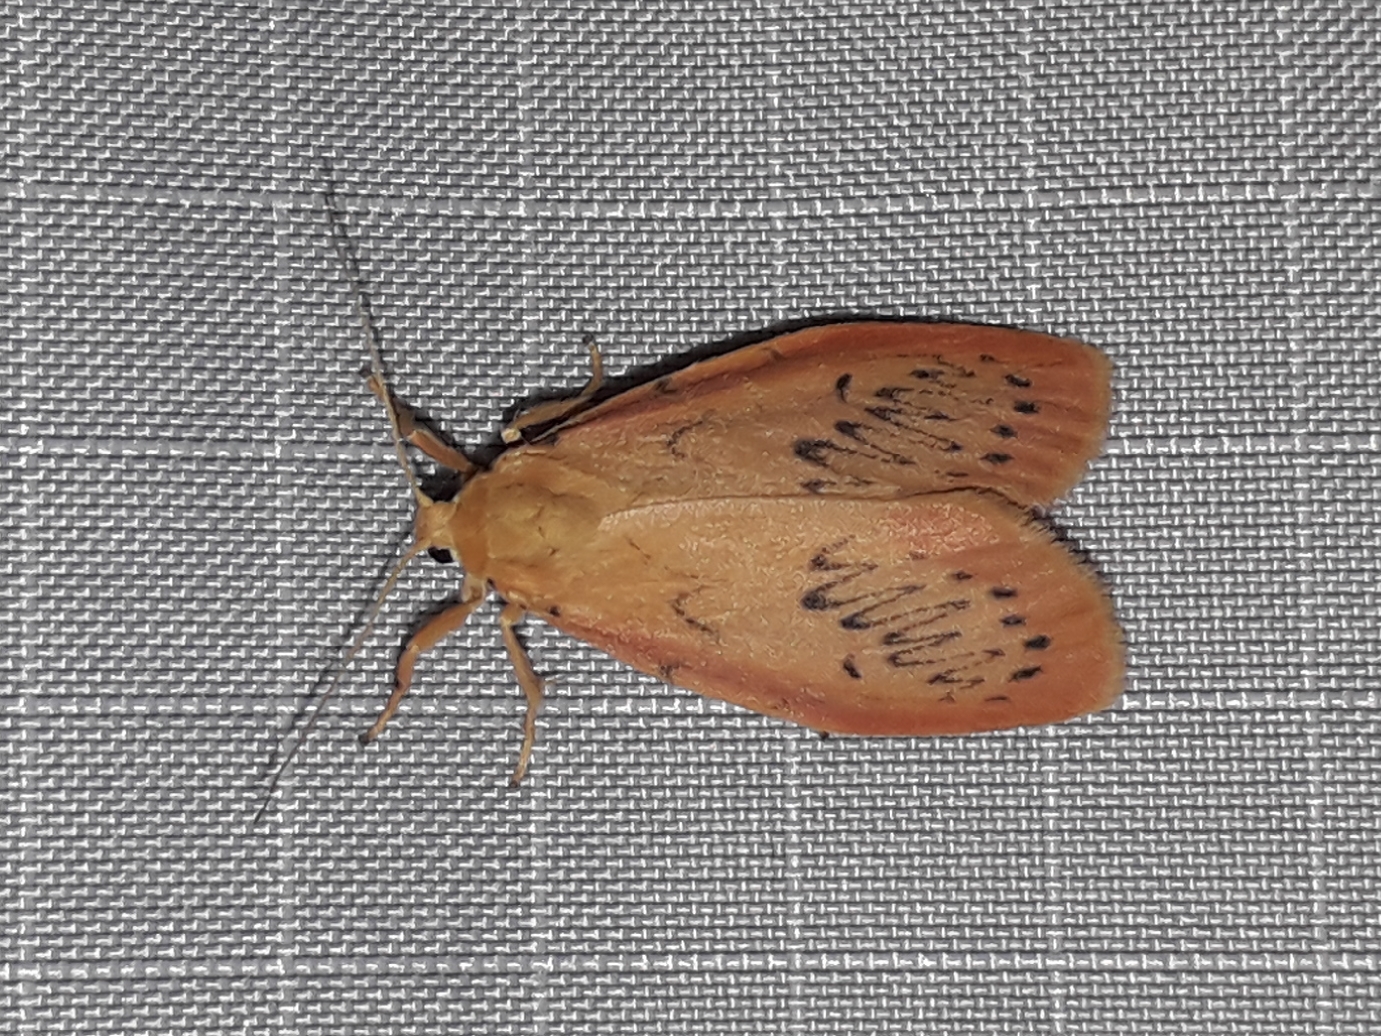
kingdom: Animalia
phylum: Arthropoda
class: Insecta
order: Lepidoptera
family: Erebidae
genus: Miltochrista
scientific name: Miltochrista miniata
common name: Rosy footman
